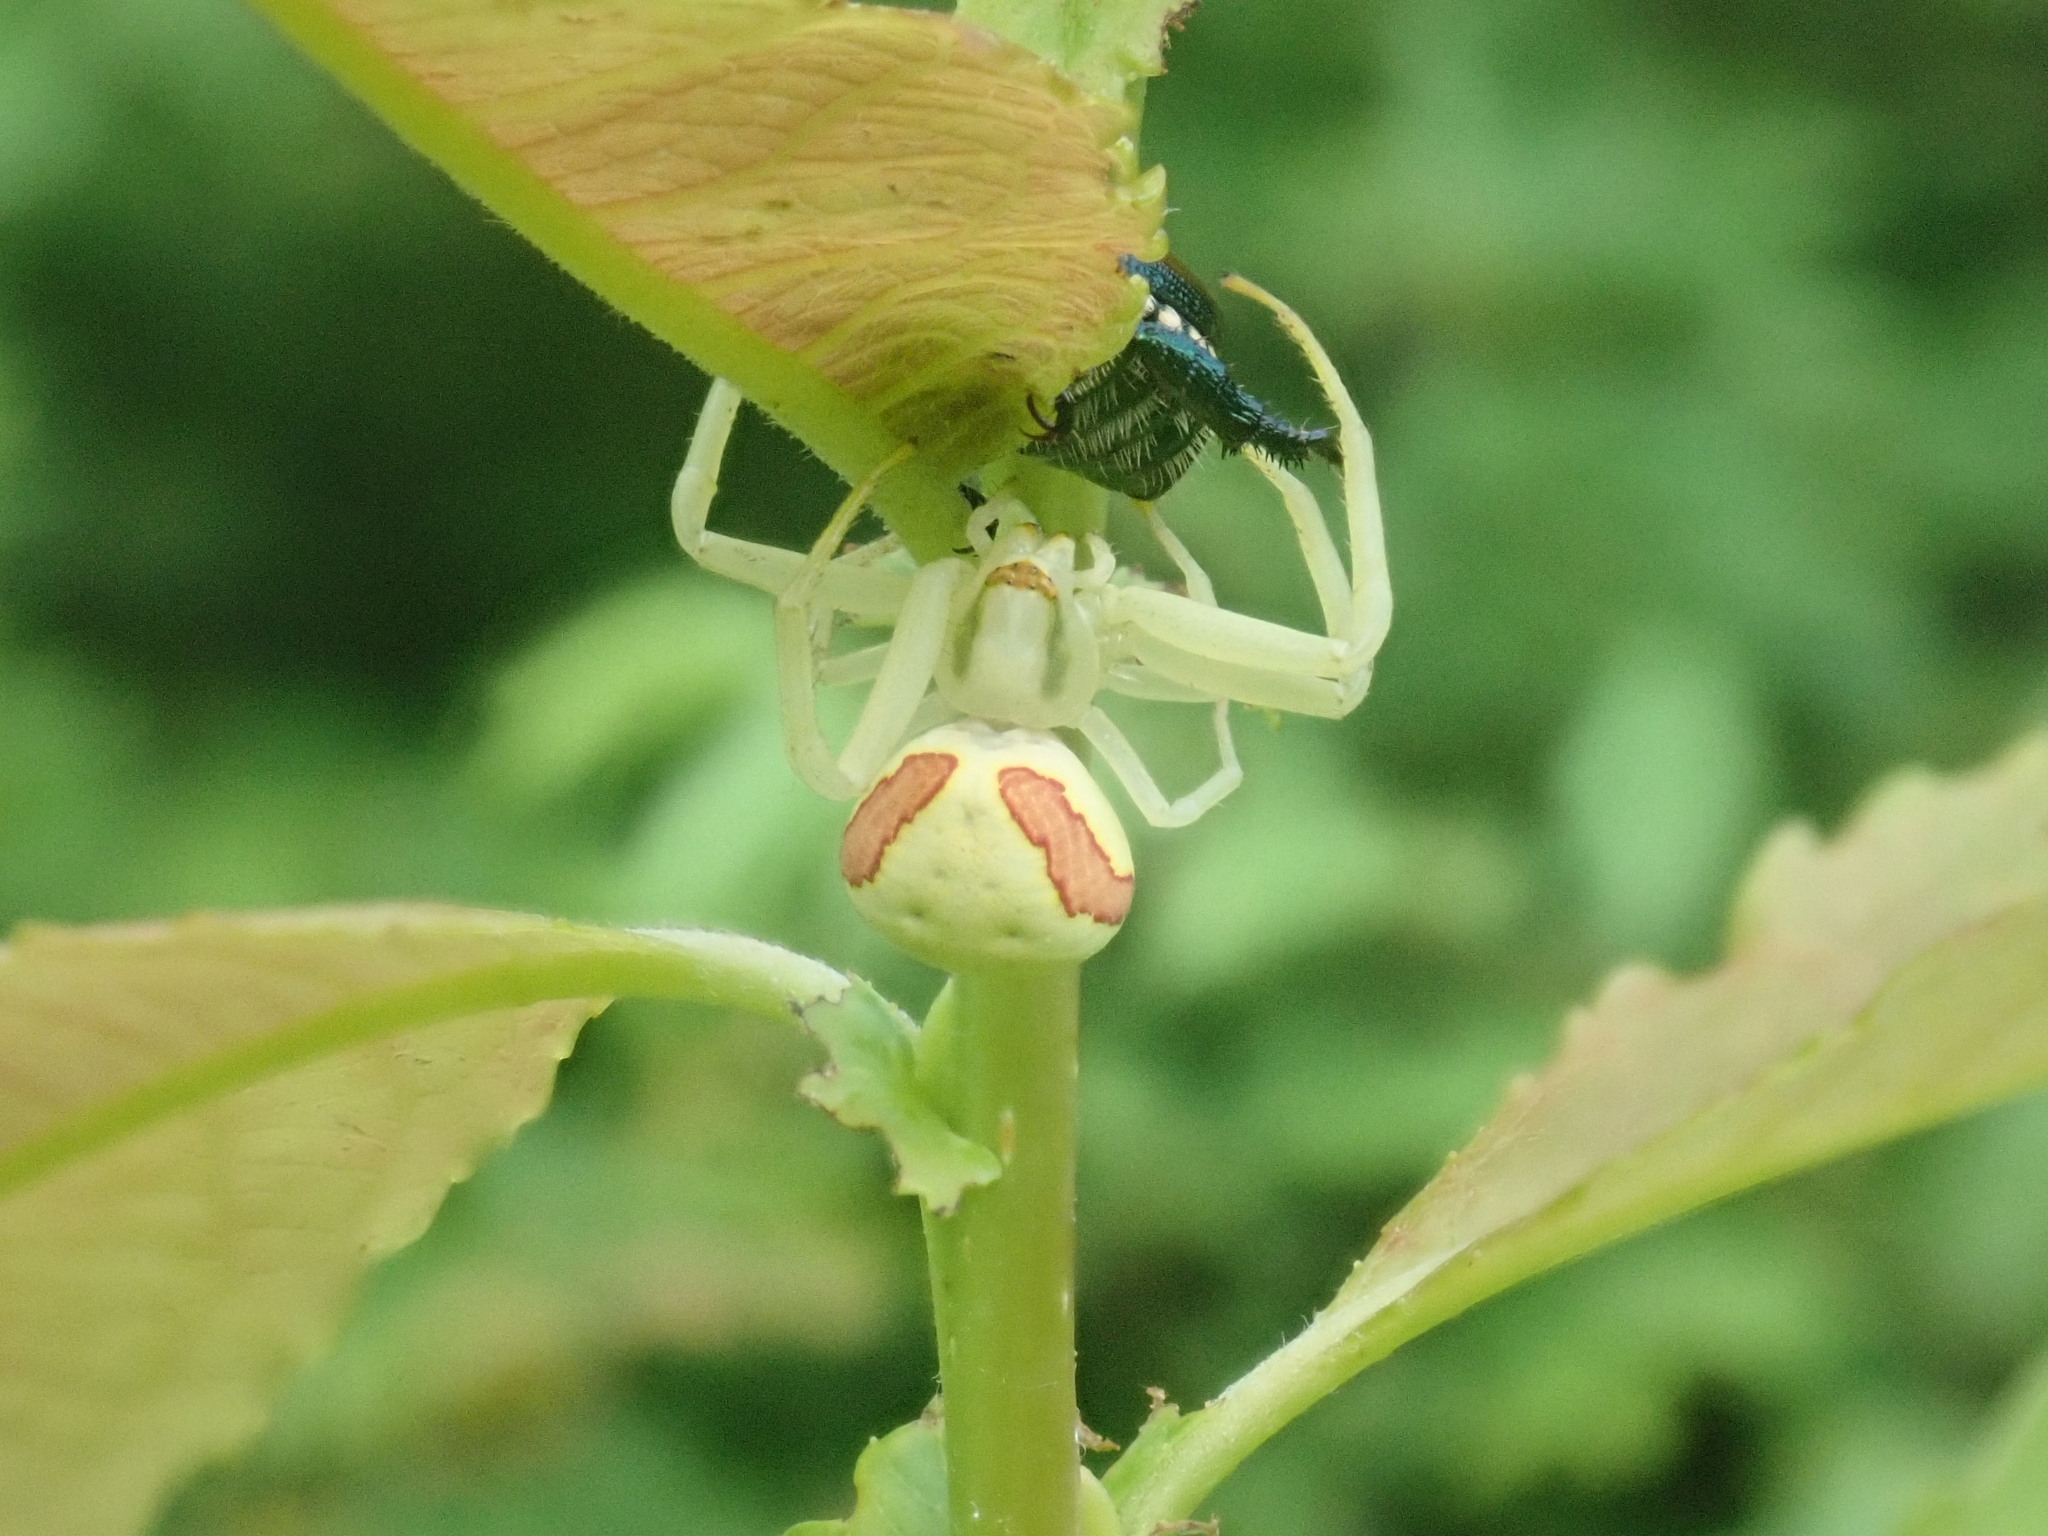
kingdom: Animalia
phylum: Arthropoda
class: Arachnida
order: Araneae
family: Thomisidae
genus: Misumena
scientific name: Misumena vatia
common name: Goldenrod crab spider
